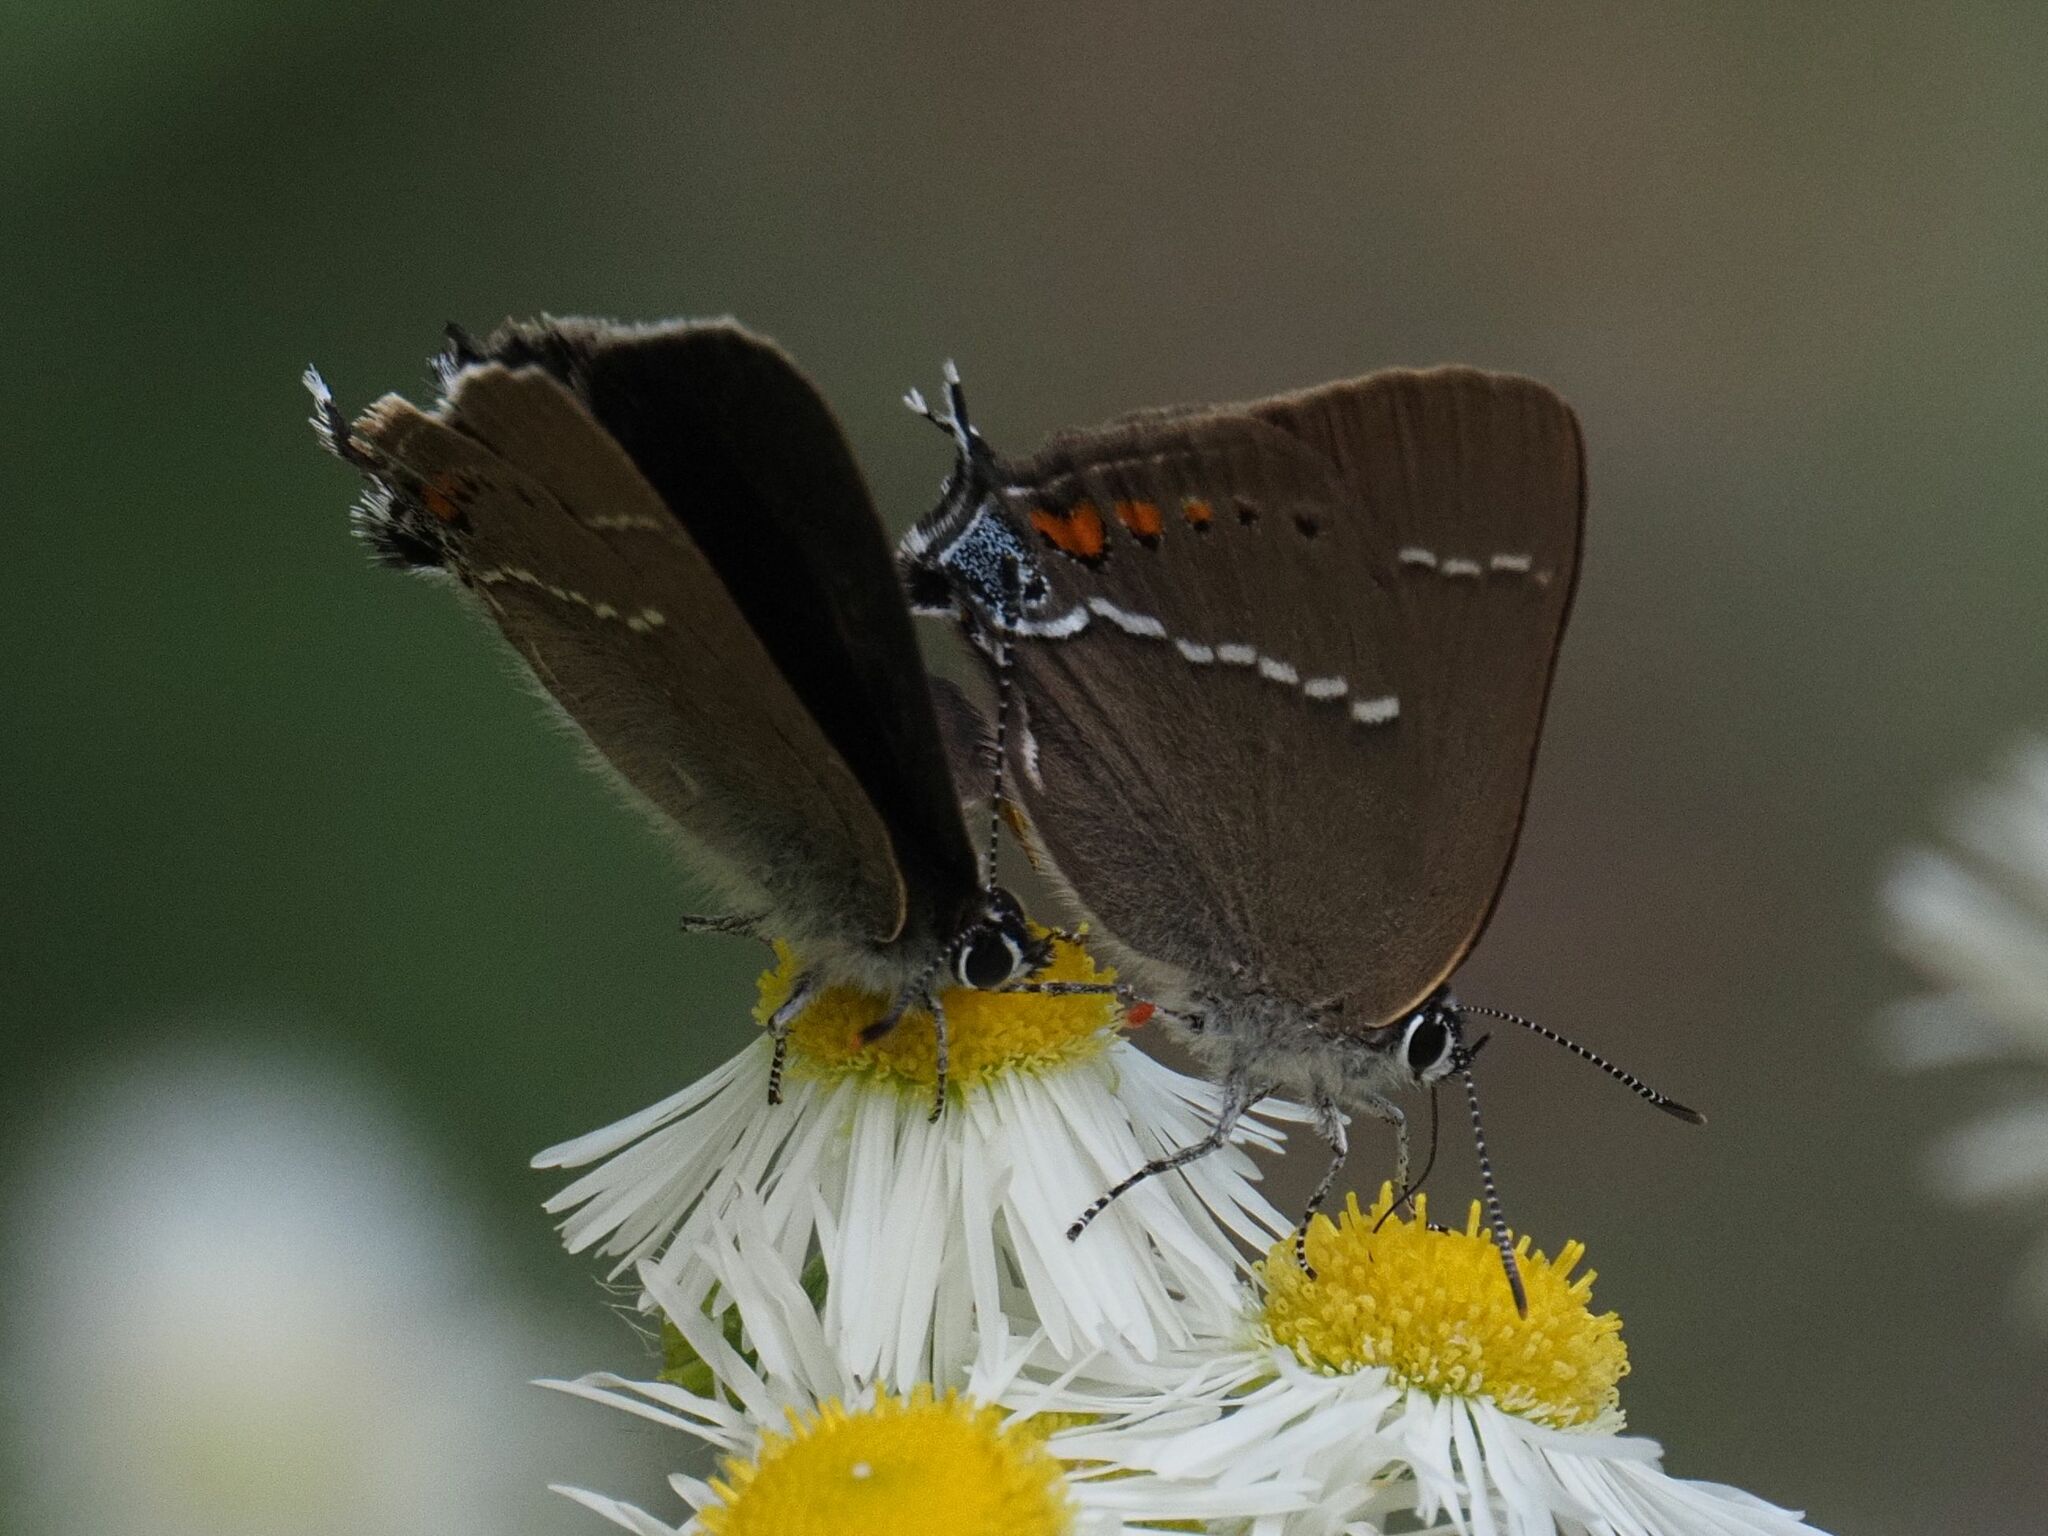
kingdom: Animalia
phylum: Arthropoda
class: Insecta
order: Lepidoptera
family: Lycaenidae
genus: Tuttiola
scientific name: Tuttiola spini
